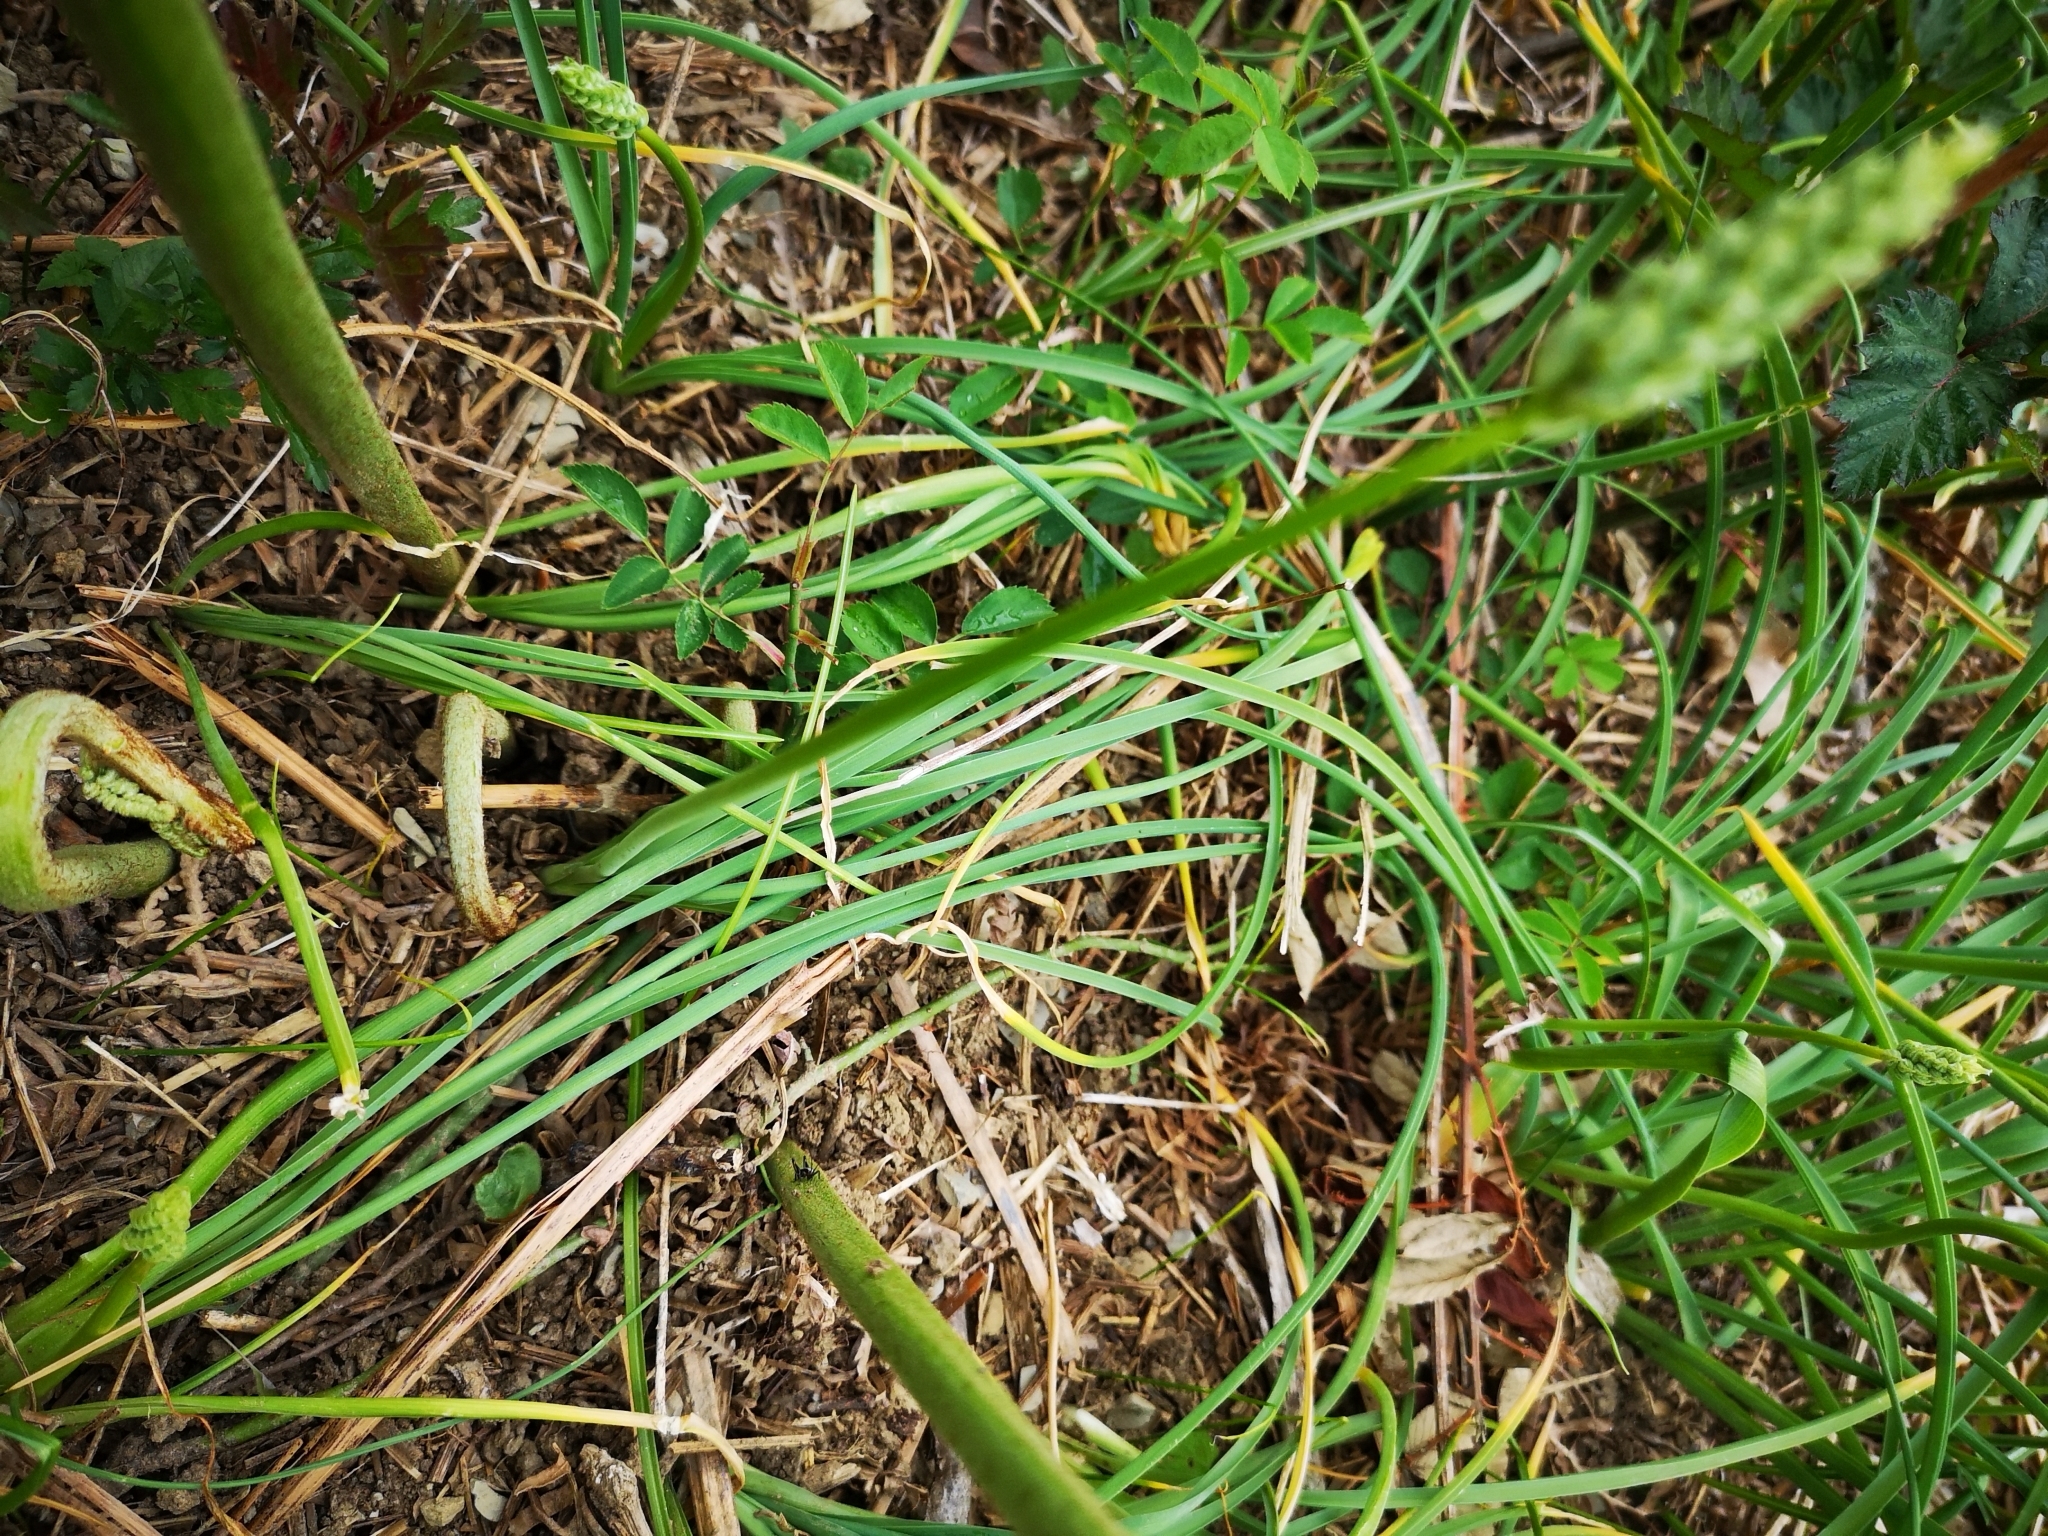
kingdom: Plantae
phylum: Tracheophyta
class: Liliopsida
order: Asparagales
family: Asparagaceae
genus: Ornithogalum
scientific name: Ornithogalum pyrenaicum
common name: Spiked star-of-bethlehem
